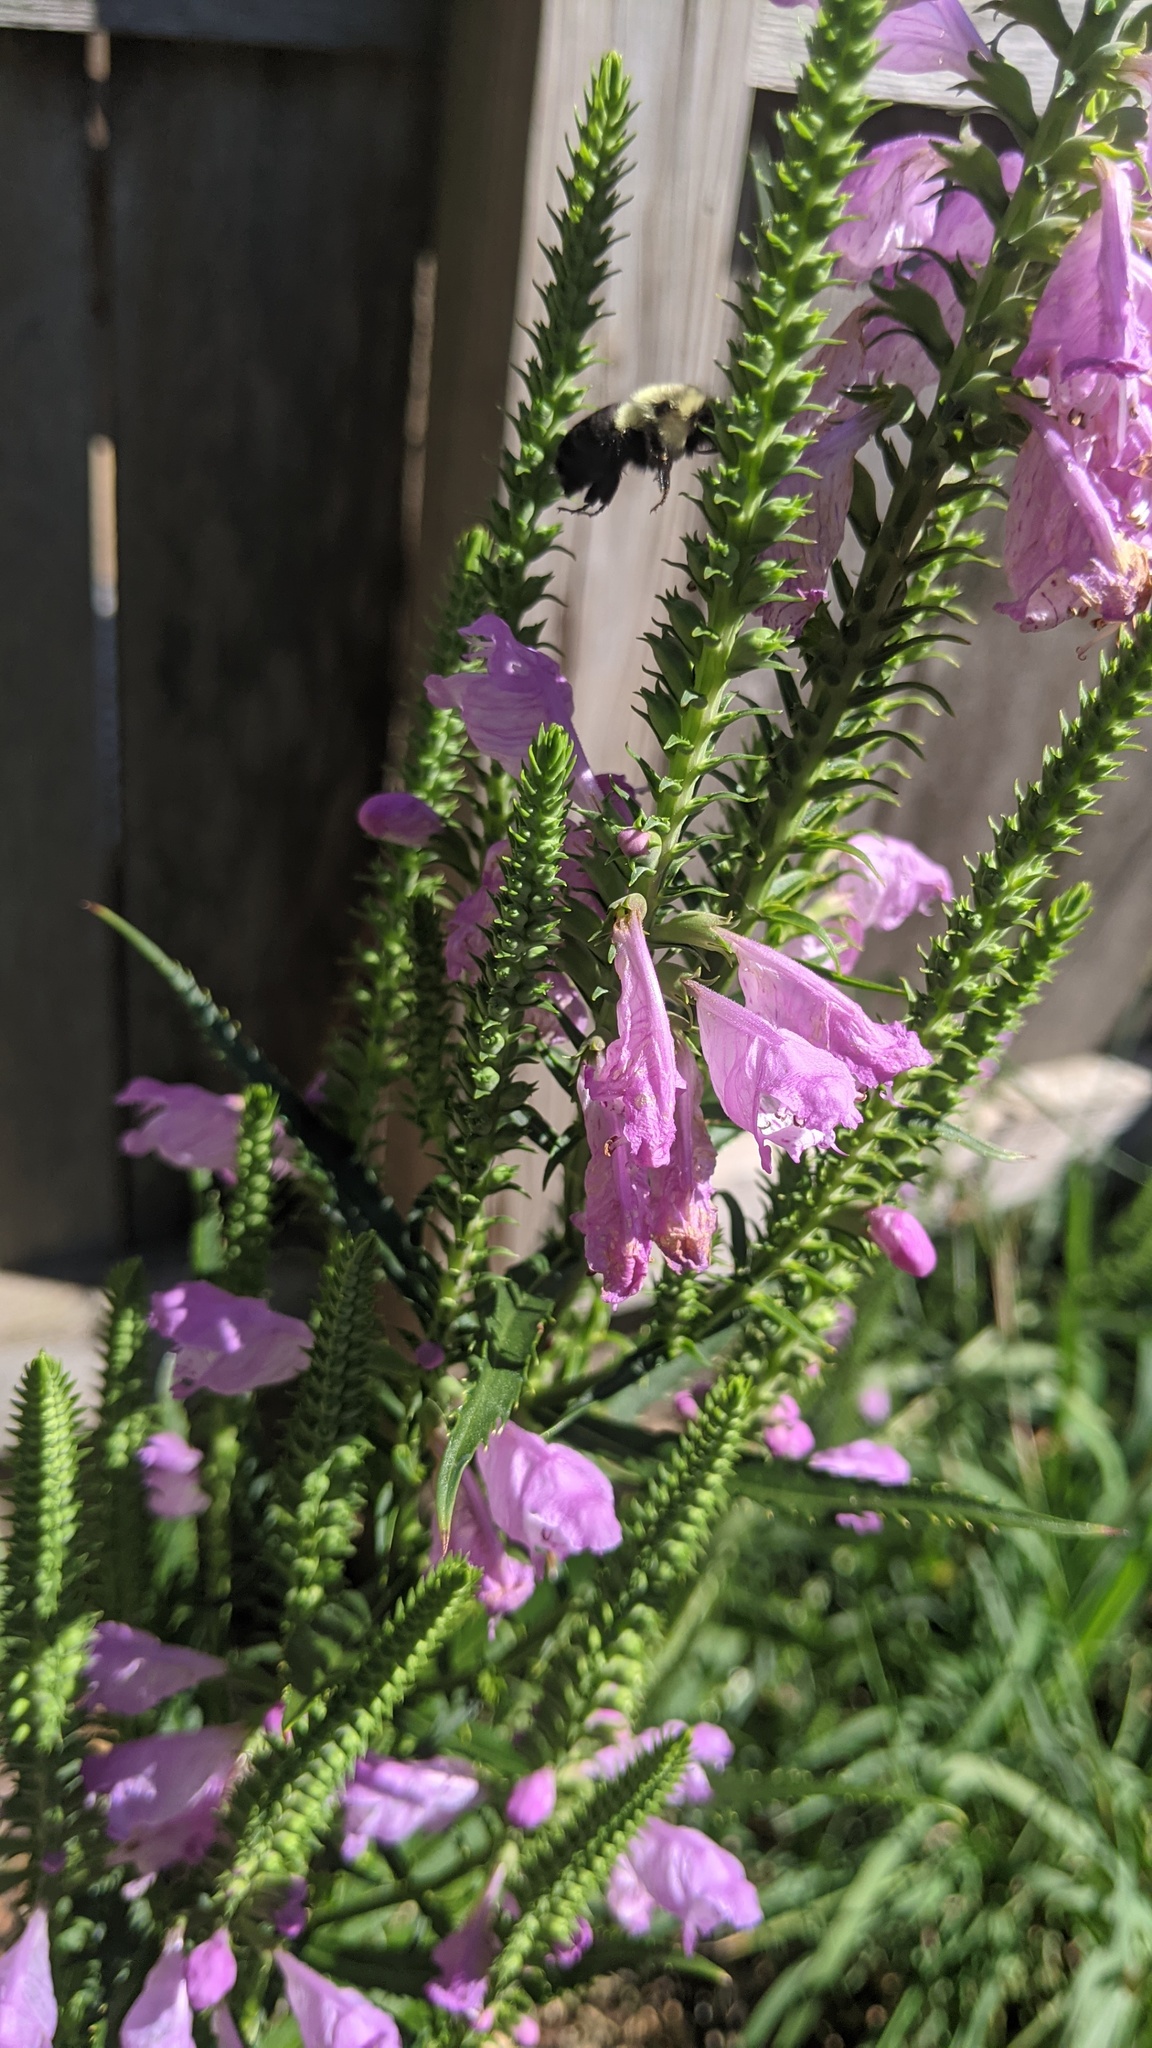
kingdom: Animalia
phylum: Arthropoda
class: Insecta
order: Hymenoptera
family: Apidae
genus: Bombus
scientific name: Bombus impatiens
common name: Common eastern bumble bee
